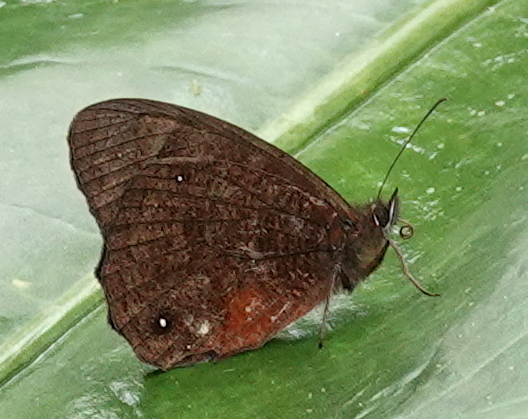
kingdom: Animalia
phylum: Arthropoda
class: Insecta
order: Lepidoptera
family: Nymphalidae
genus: Pedaliodes
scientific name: Pedaliodes
